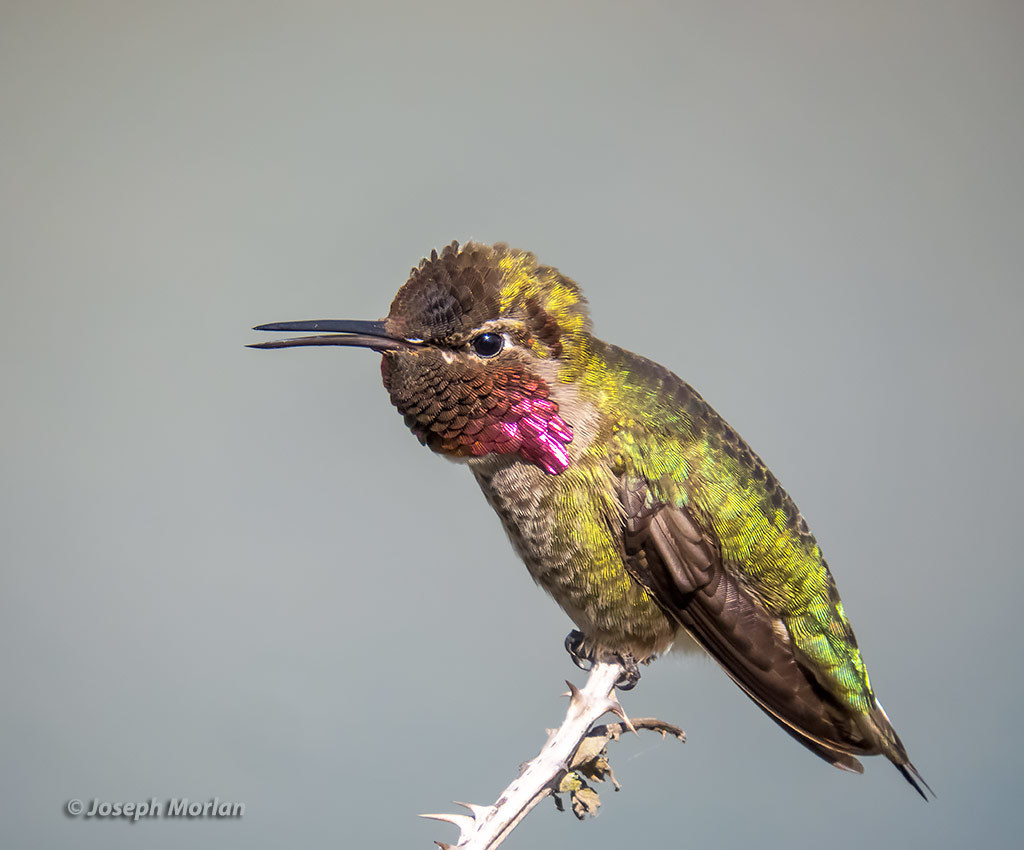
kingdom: Animalia
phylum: Chordata
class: Aves
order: Apodiformes
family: Trochilidae
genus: Calypte
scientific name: Calypte anna
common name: Anna's hummingbird
